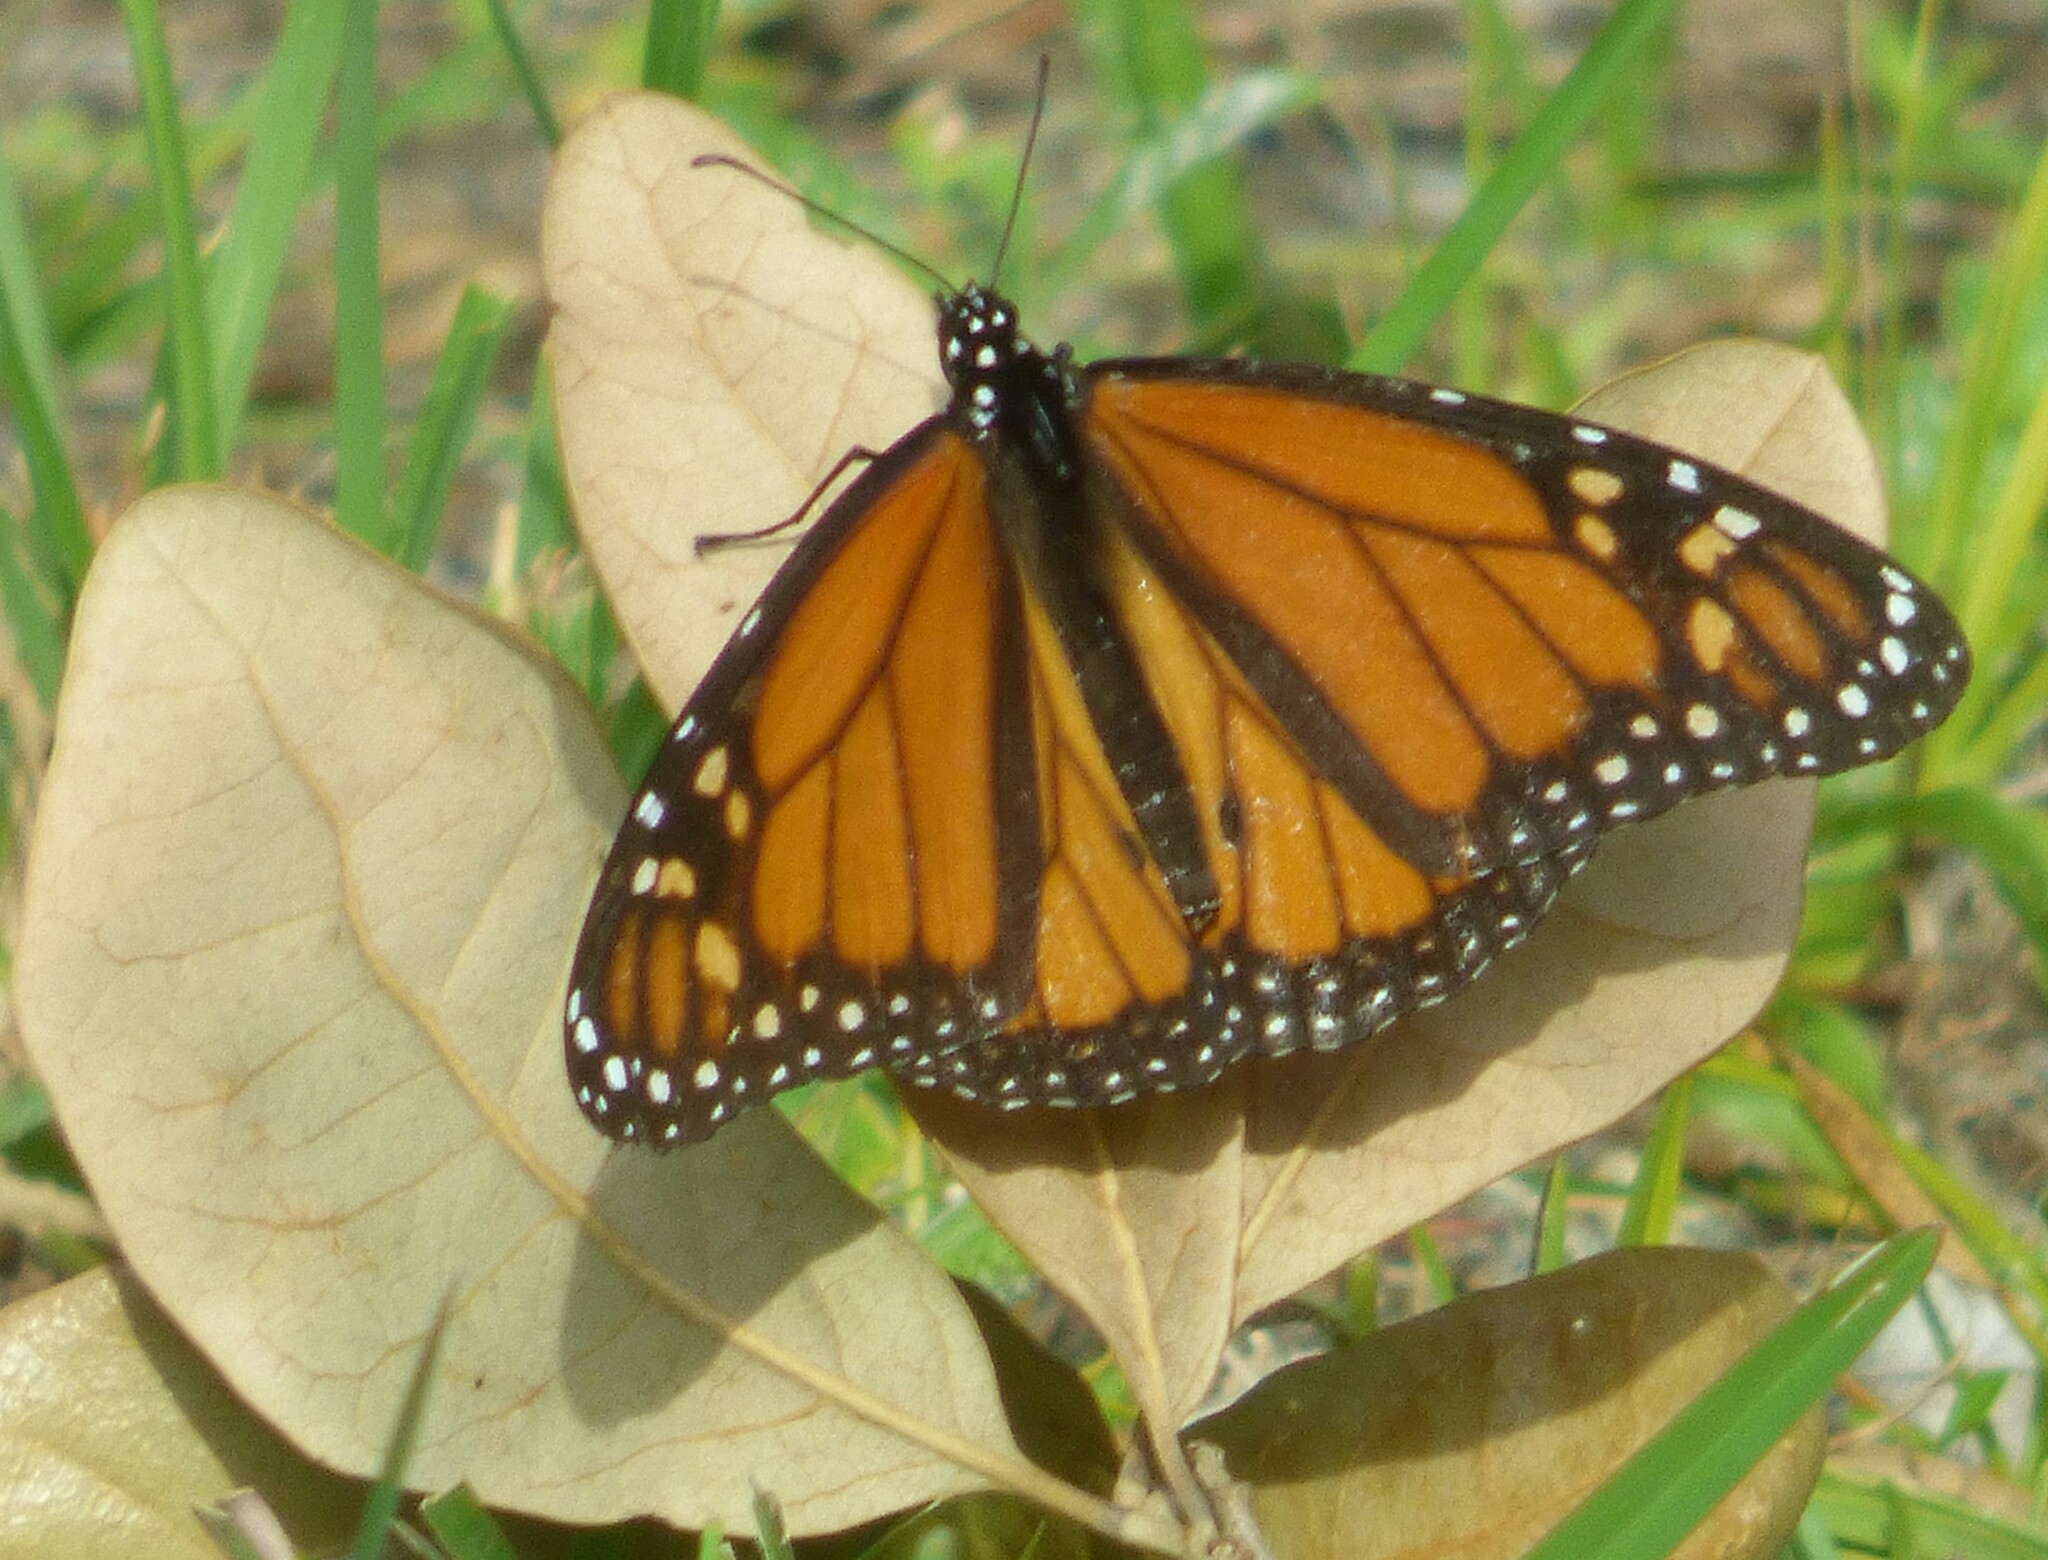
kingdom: Animalia
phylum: Arthropoda
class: Insecta
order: Lepidoptera
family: Nymphalidae
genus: Danaus
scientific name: Danaus plexippus
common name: Monarch
